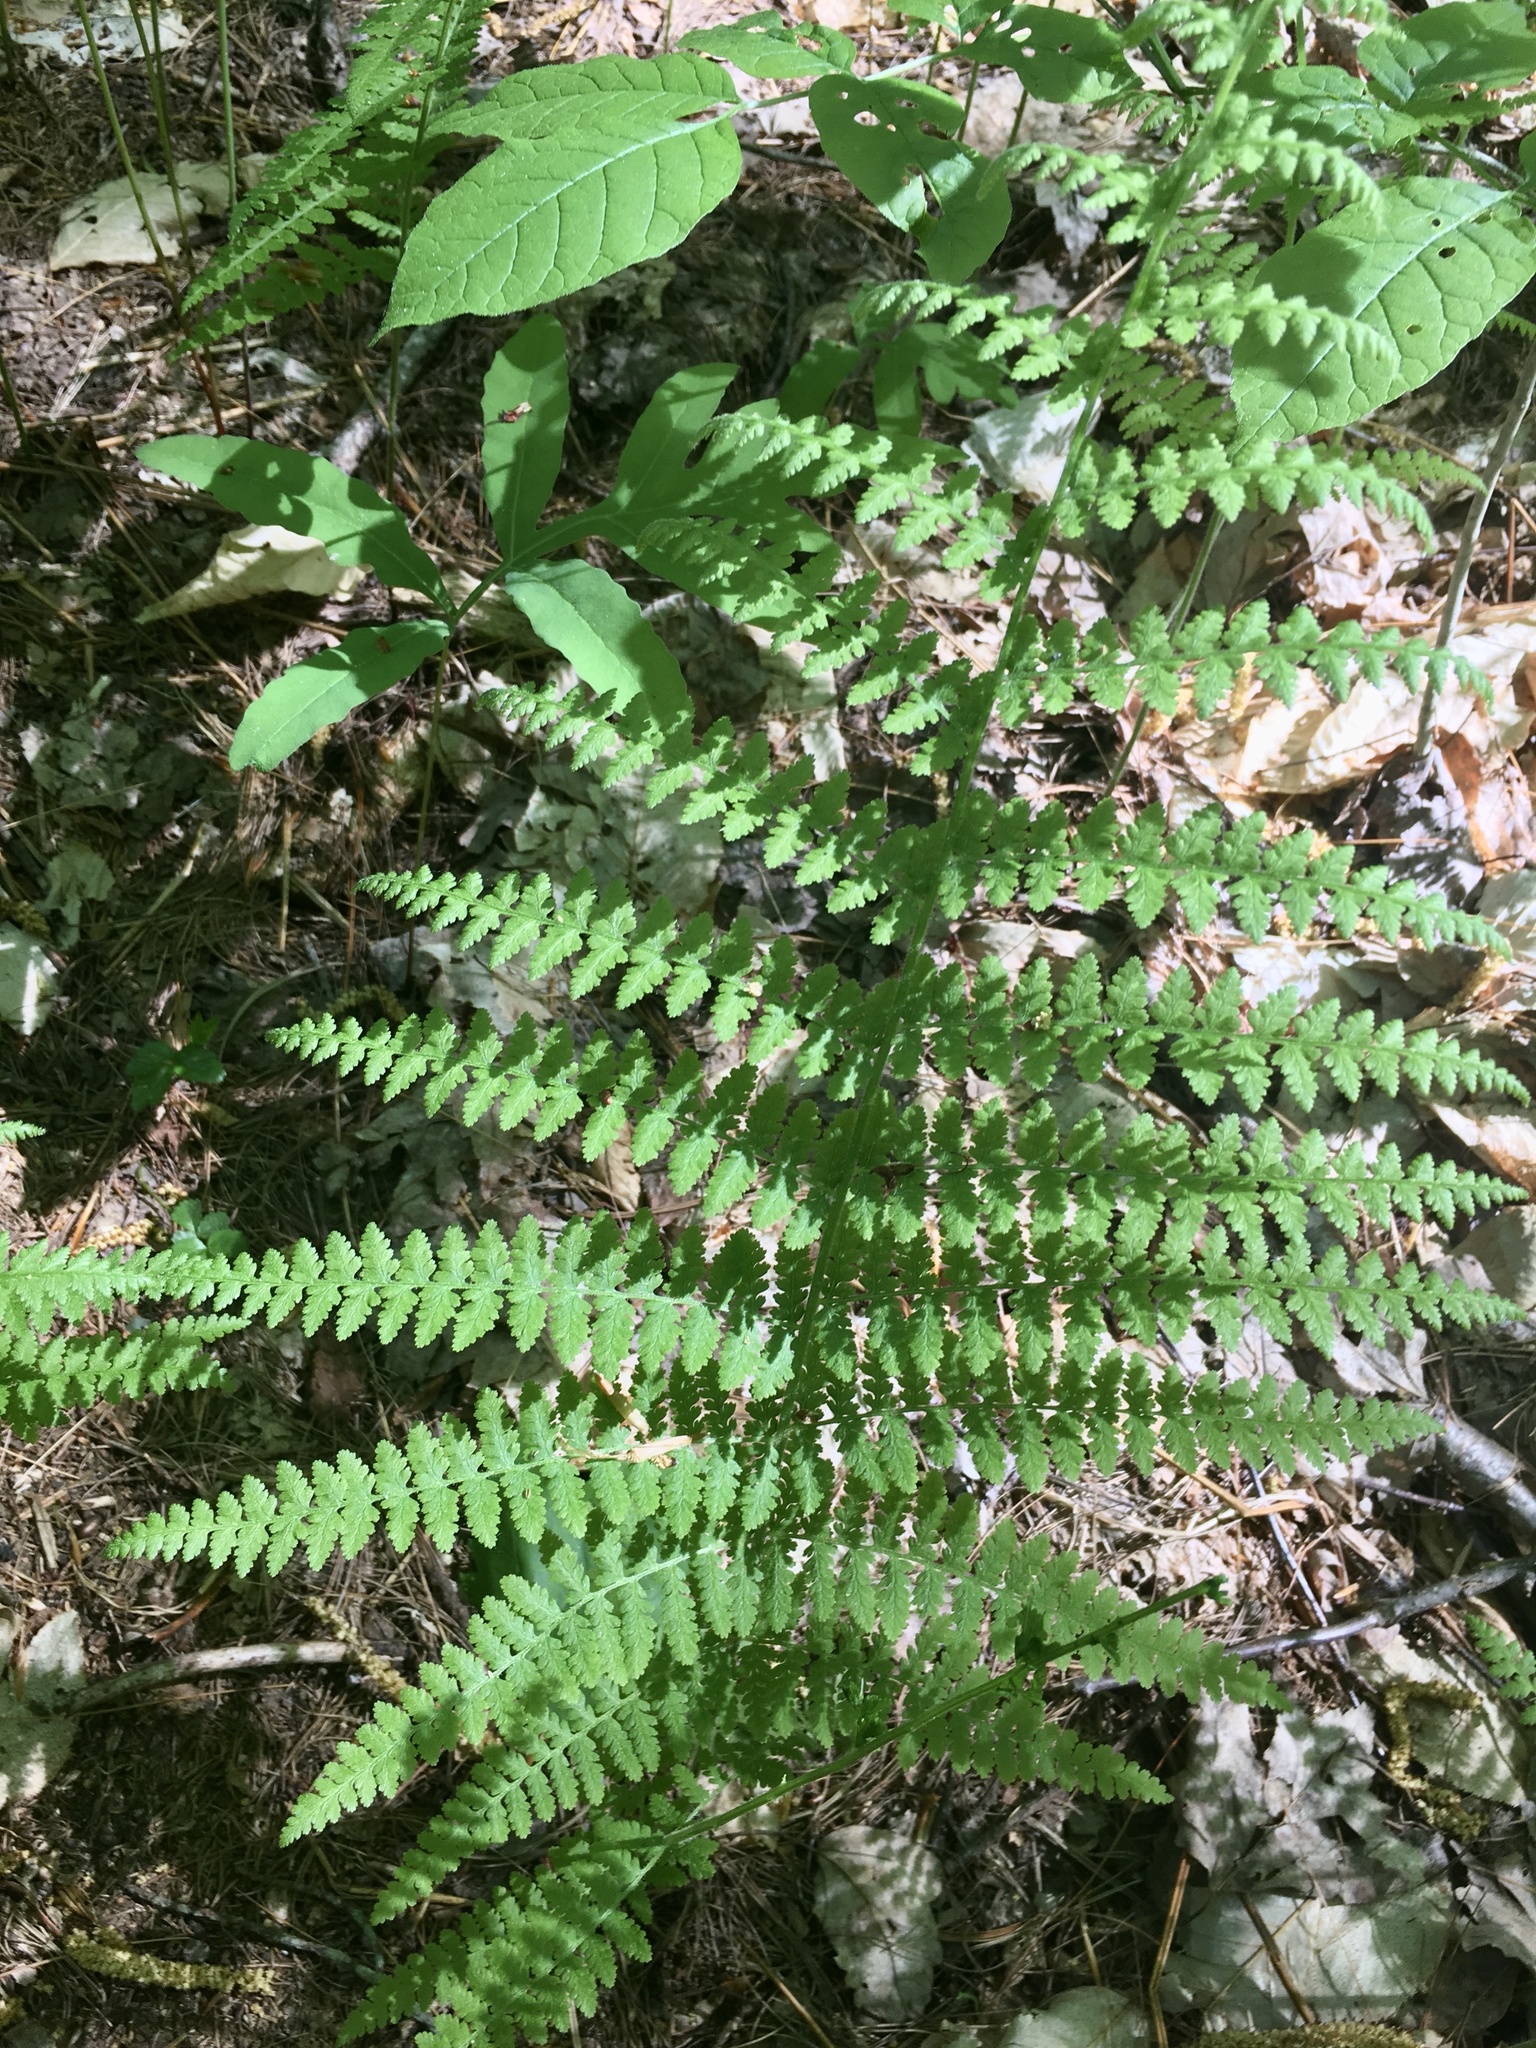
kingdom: Plantae
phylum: Tracheophyta
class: Polypodiopsida
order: Polypodiales
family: Dennstaedtiaceae
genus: Sitobolium
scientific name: Sitobolium punctilobum
